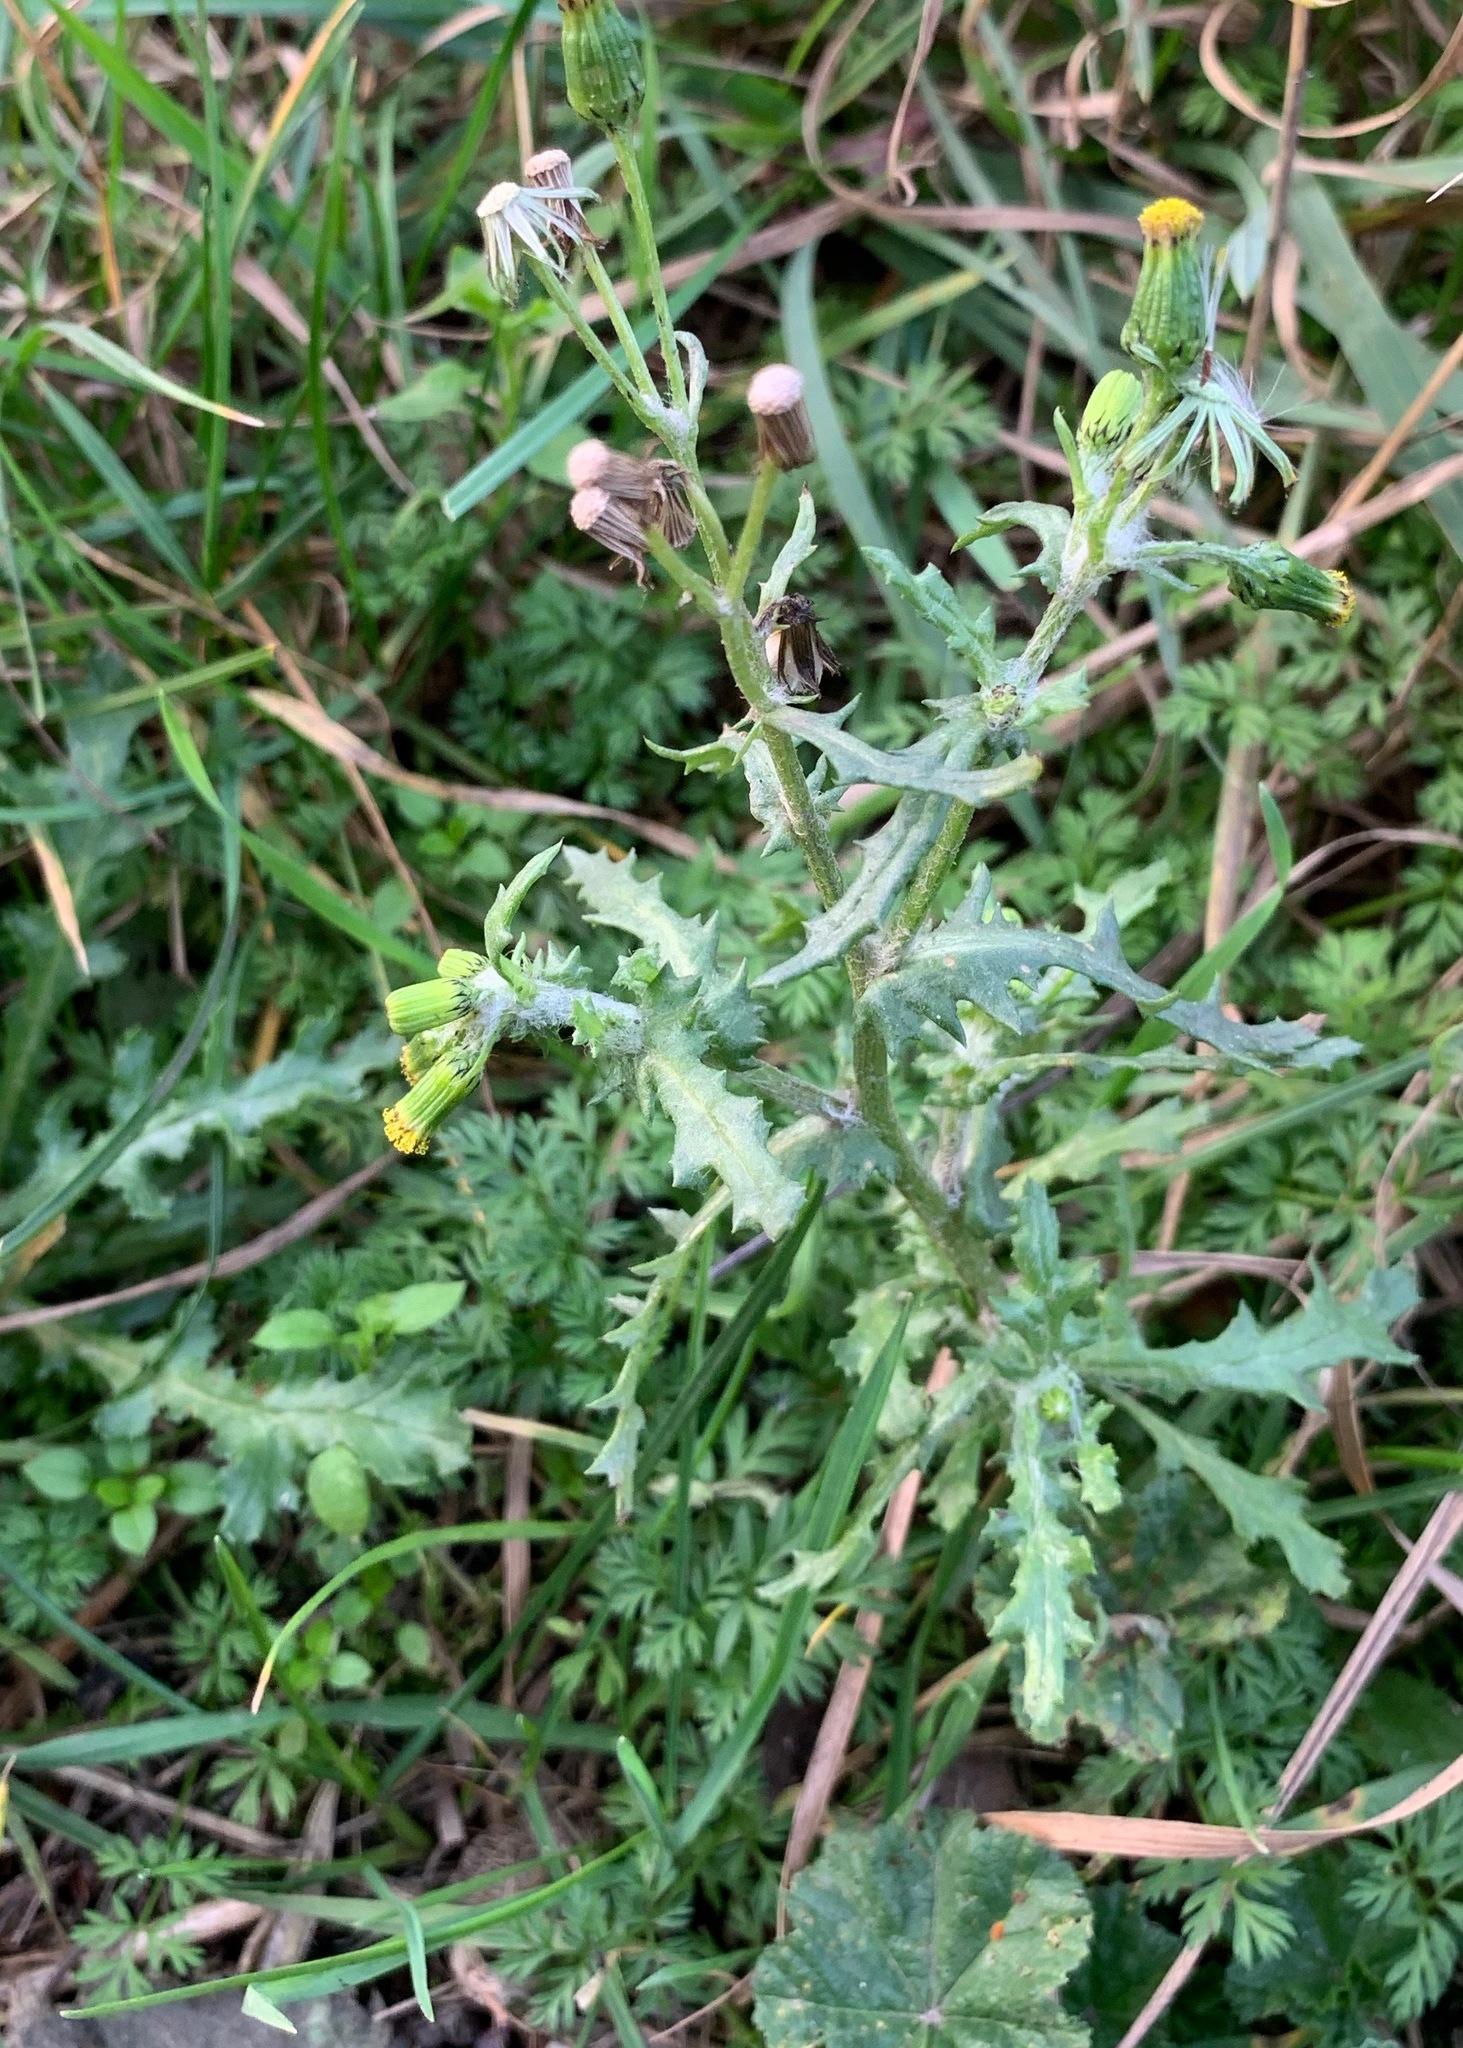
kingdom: Plantae
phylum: Tracheophyta
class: Magnoliopsida
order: Asterales
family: Asteraceae
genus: Senecio
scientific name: Senecio vulgaris
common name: Old-man-in-the-spring
